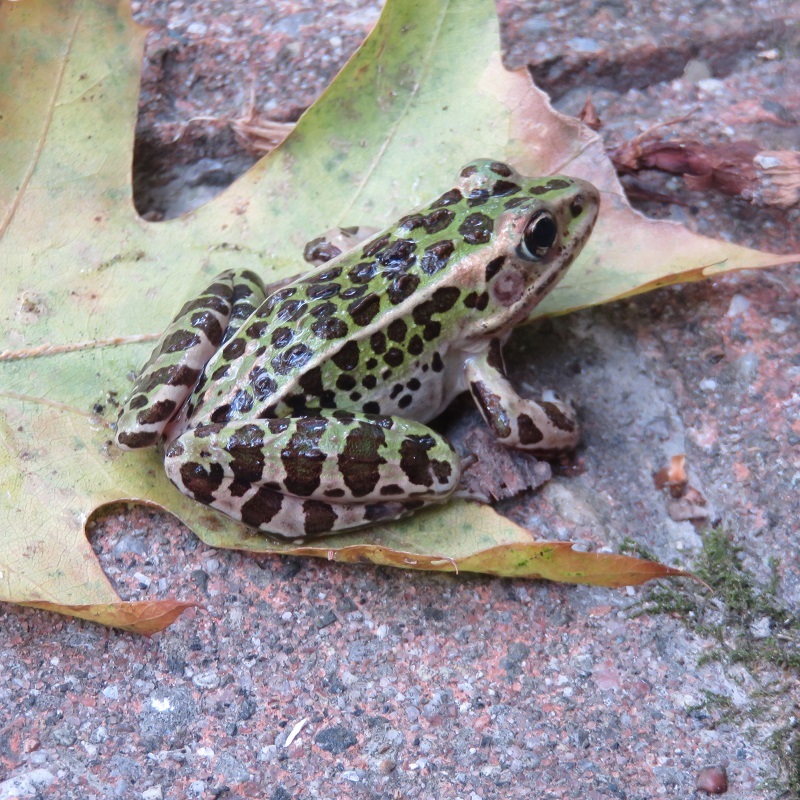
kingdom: Animalia
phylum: Chordata
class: Amphibia
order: Anura
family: Ranidae
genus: Lithobates
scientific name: Lithobates pipiens
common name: Northern leopard frog
